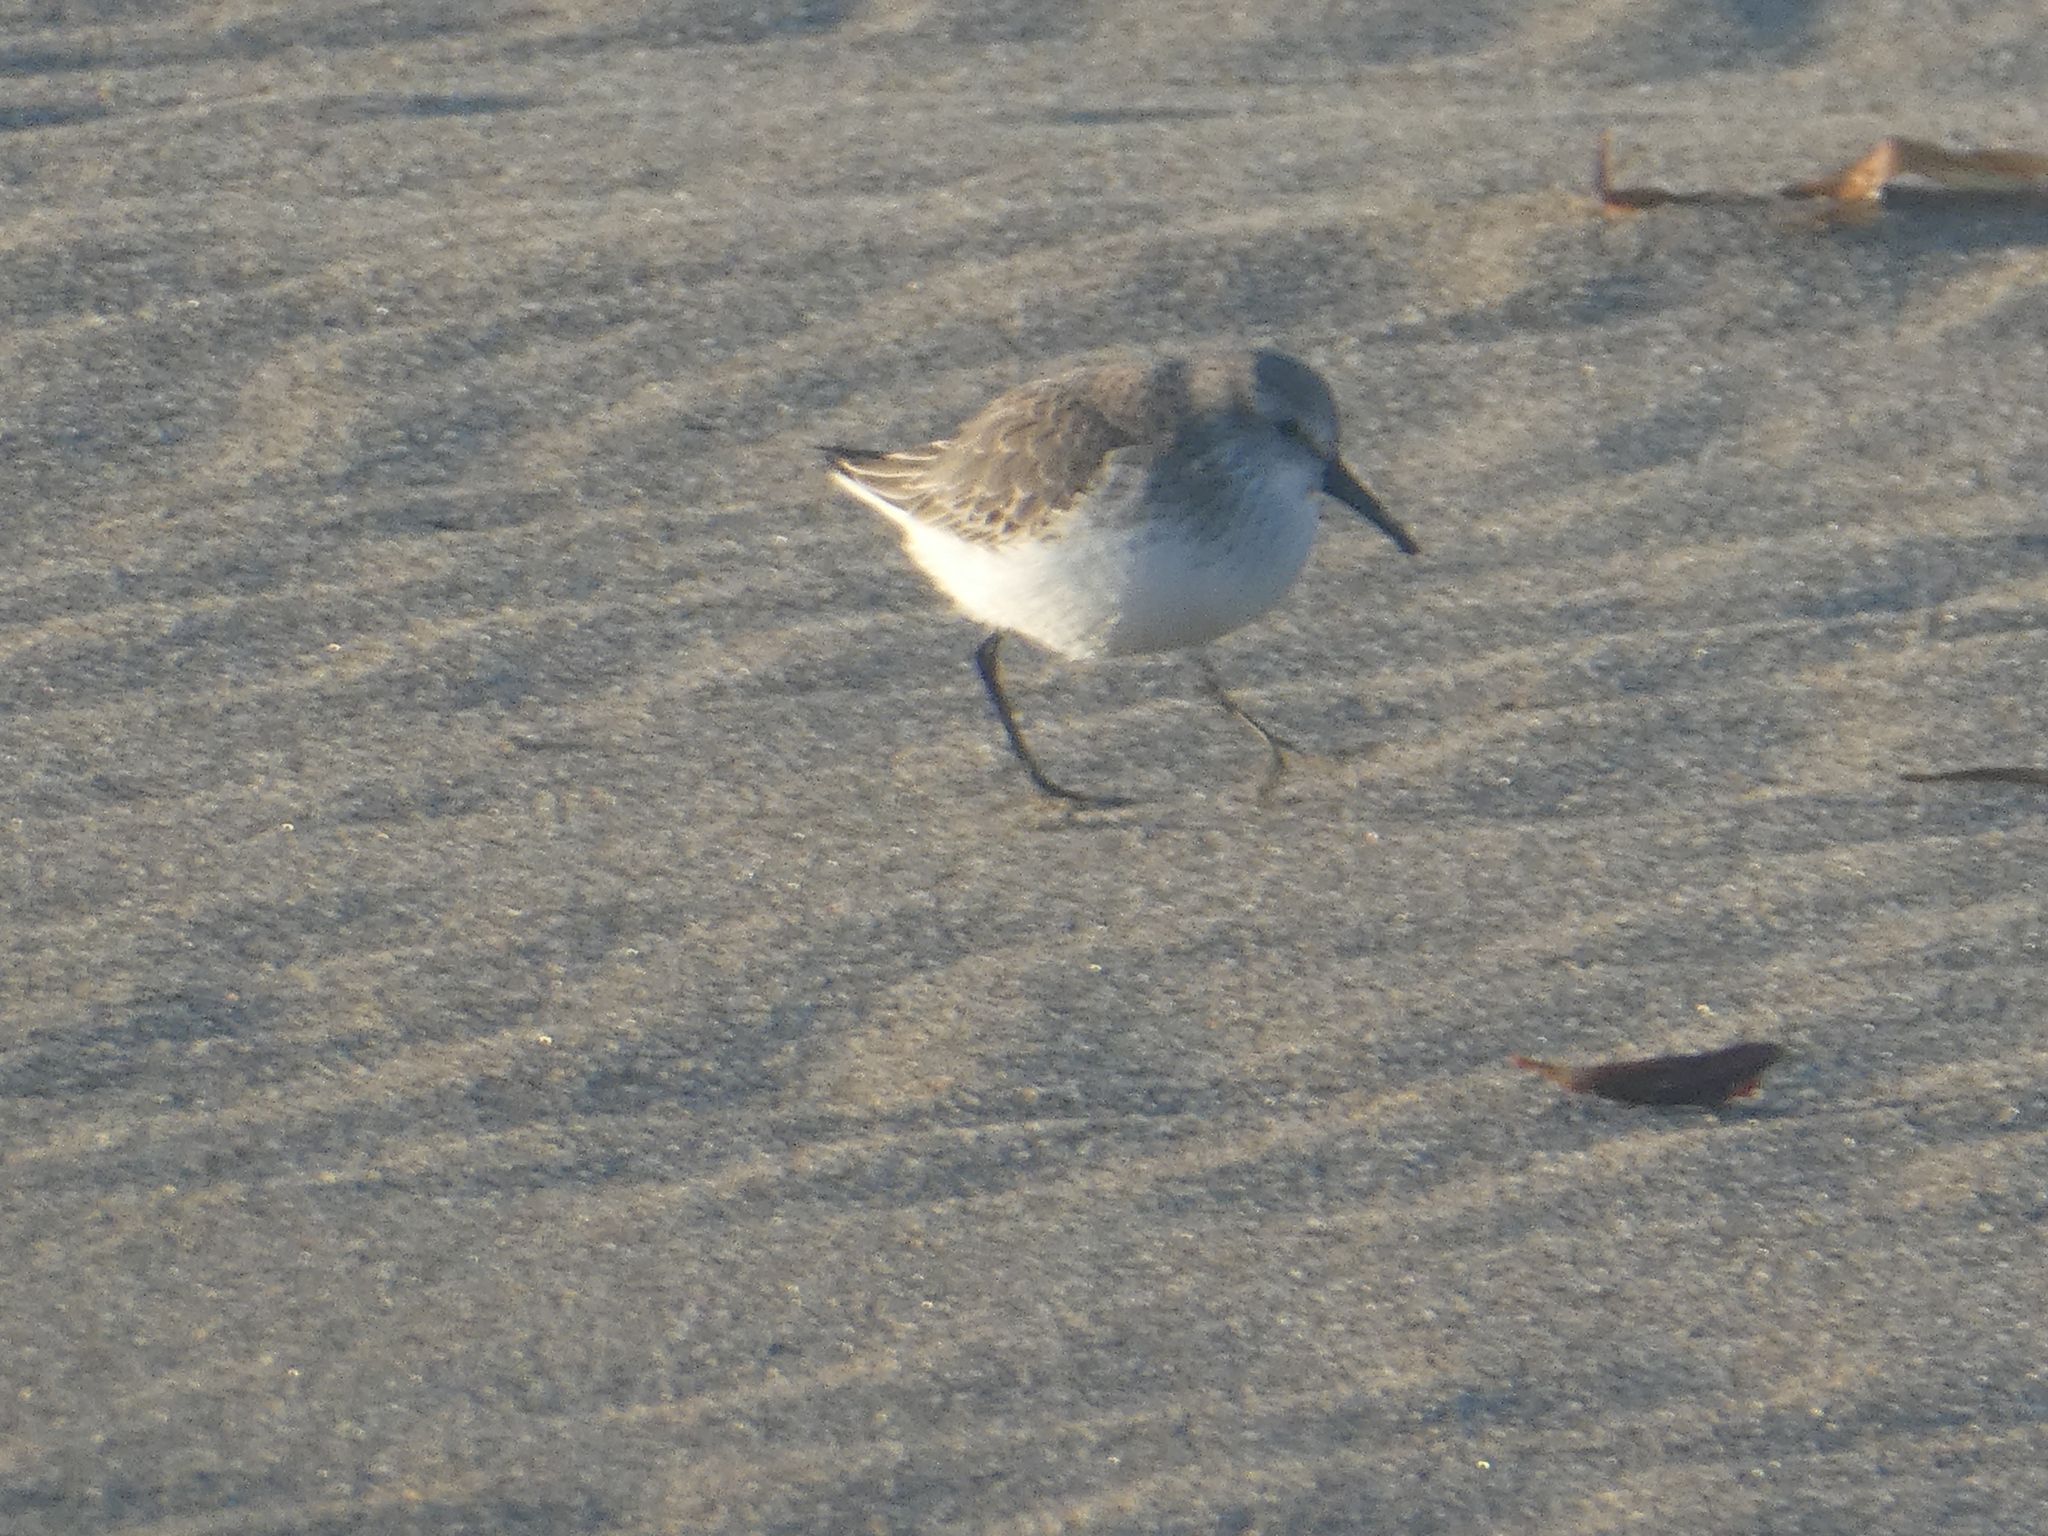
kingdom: Animalia
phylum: Chordata
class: Aves
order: Charadriiformes
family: Scolopacidae
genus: Calidris
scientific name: Calidris mauri
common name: Western sandpiper
